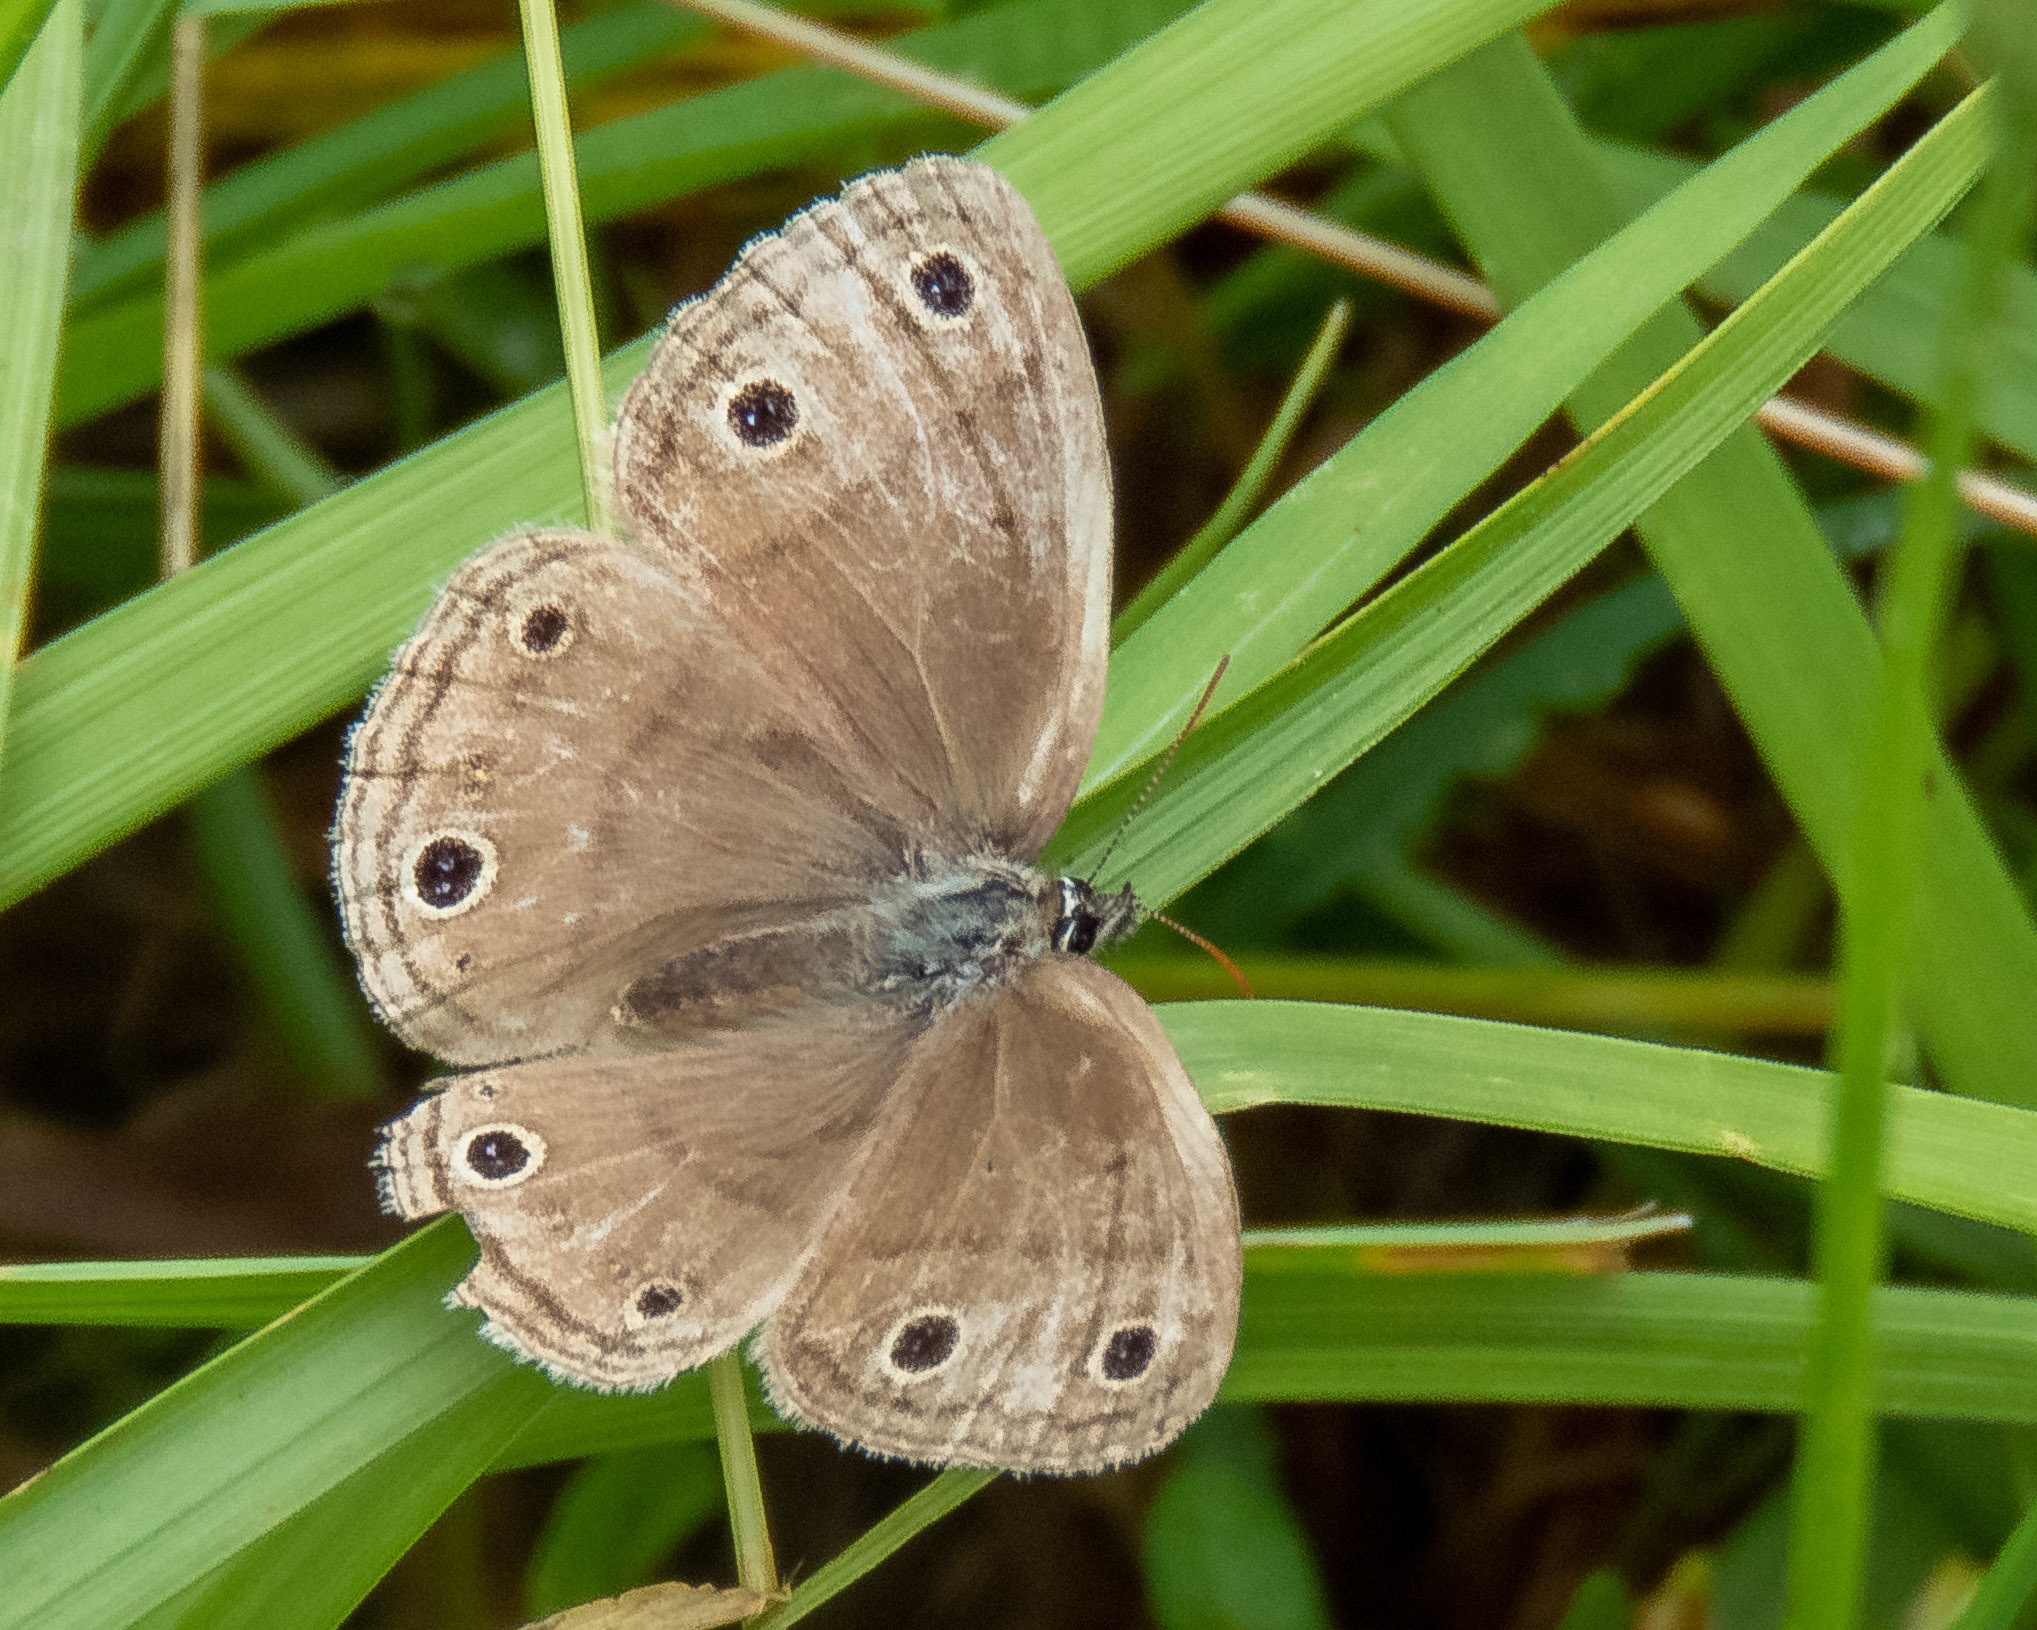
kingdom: Animalia
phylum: Arthropoda
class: Insecta
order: Lepidoptera
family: Nymphalidae
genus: Euptychia
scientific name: Euptychia cymela
